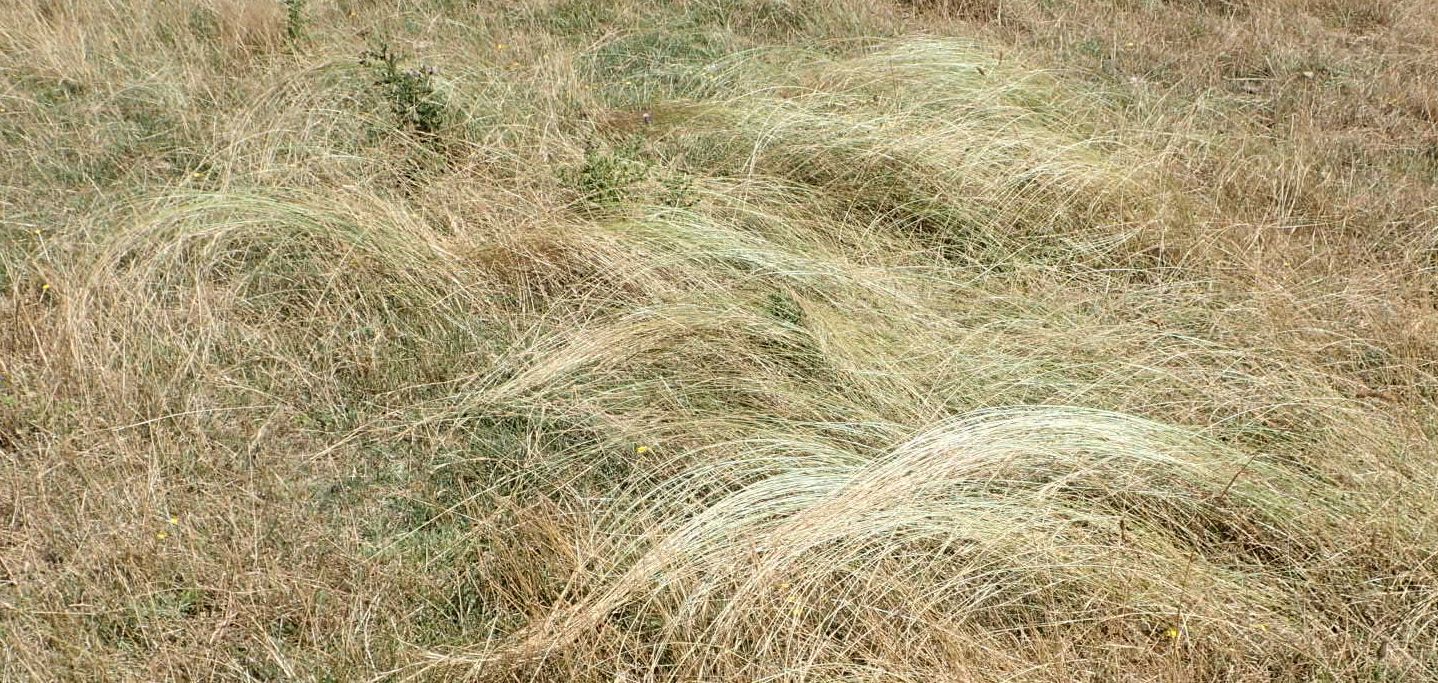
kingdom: Plantae
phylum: Tracheophyta
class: Liliopsida
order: Poales
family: Poaceae
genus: Anthosachne
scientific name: Anthosachne scabra
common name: Common wheatgrass
